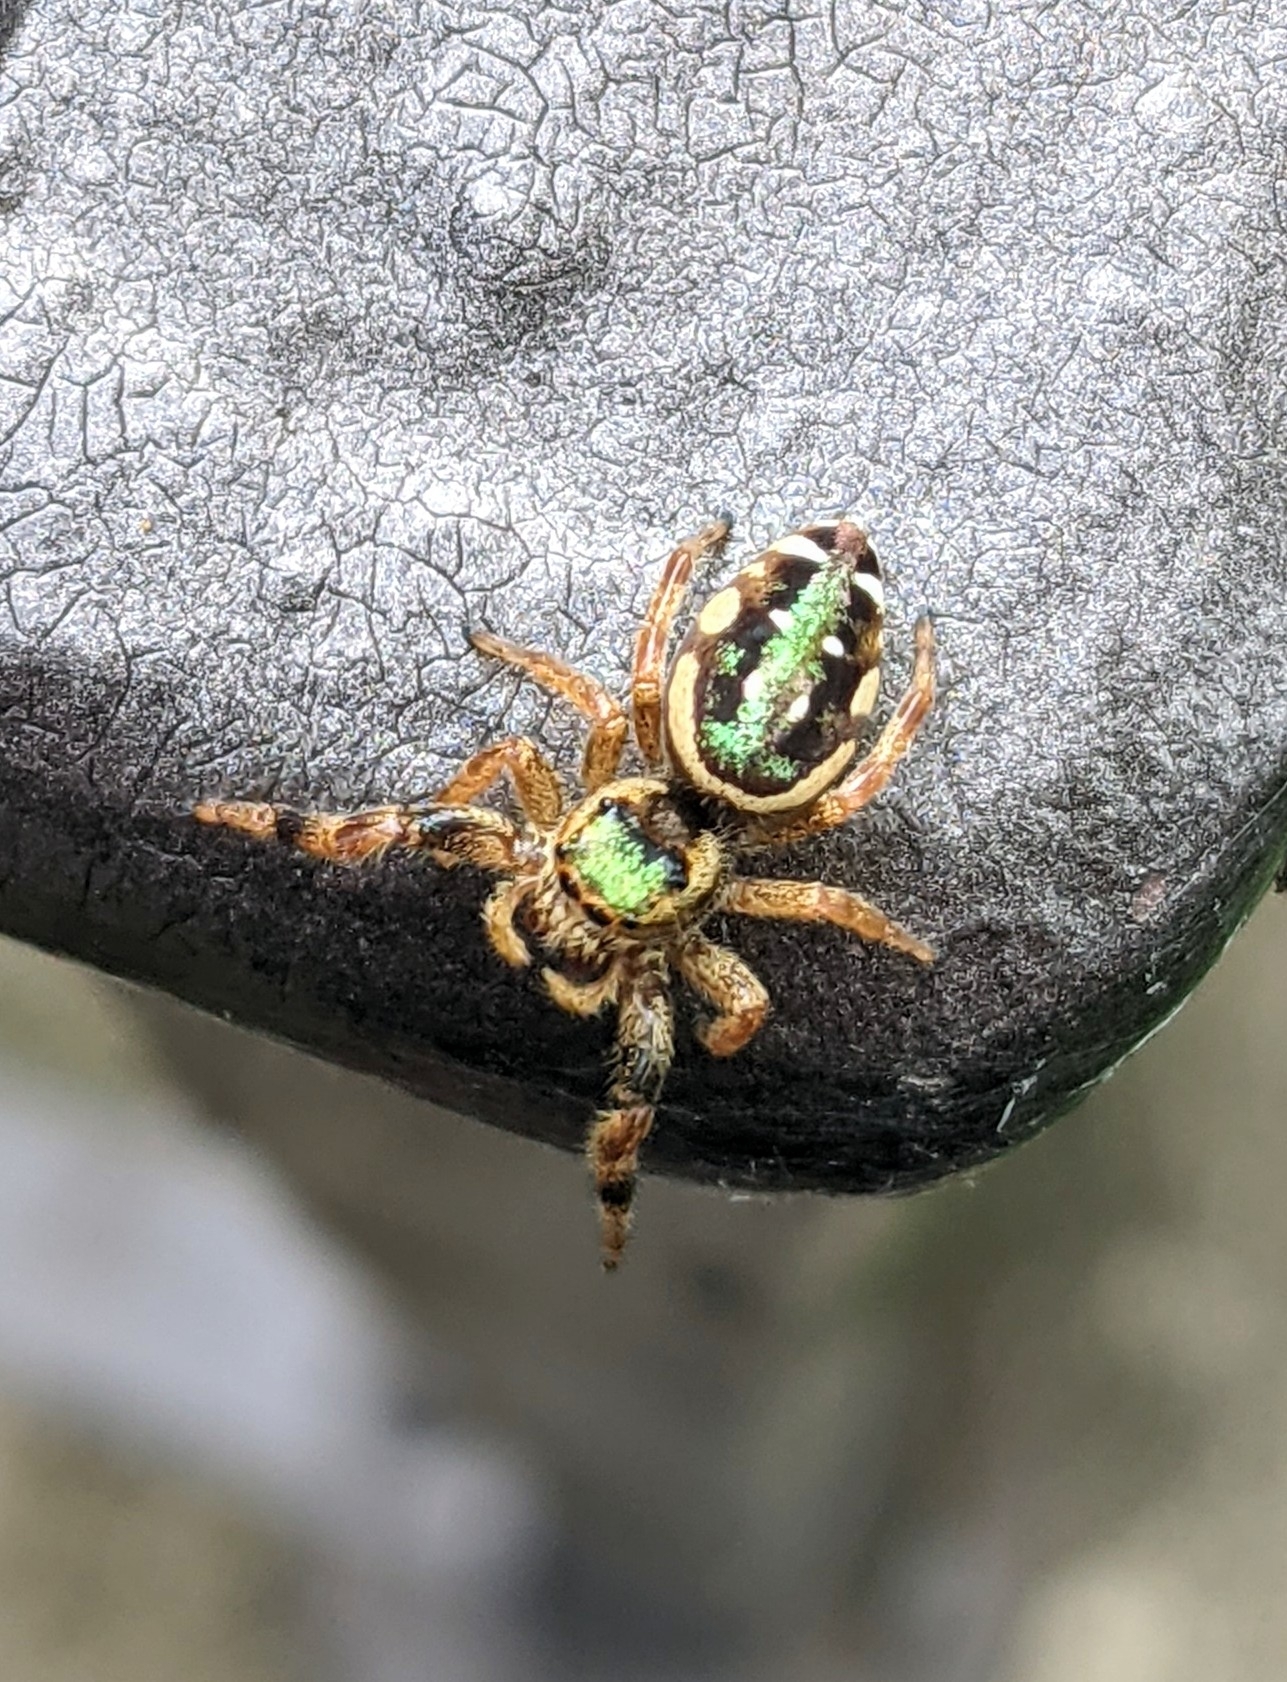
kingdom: Animalia
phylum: Arthropoda
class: Arachnida
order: Araneae
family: Salticidae
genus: Paraphidippus
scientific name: Paraphidippus aurantius
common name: Jumping spiders
